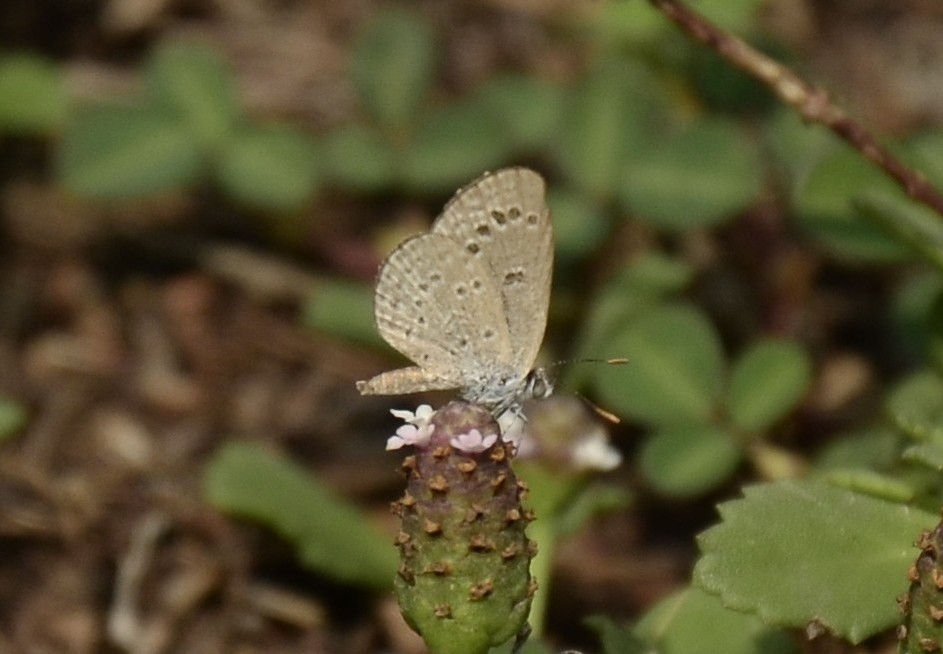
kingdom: Animalia
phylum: Arthropoda
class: Insecta
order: Lepidoptera
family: Lycaenidae
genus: Zizina
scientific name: Zizina otis
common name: Lesser grass blue
